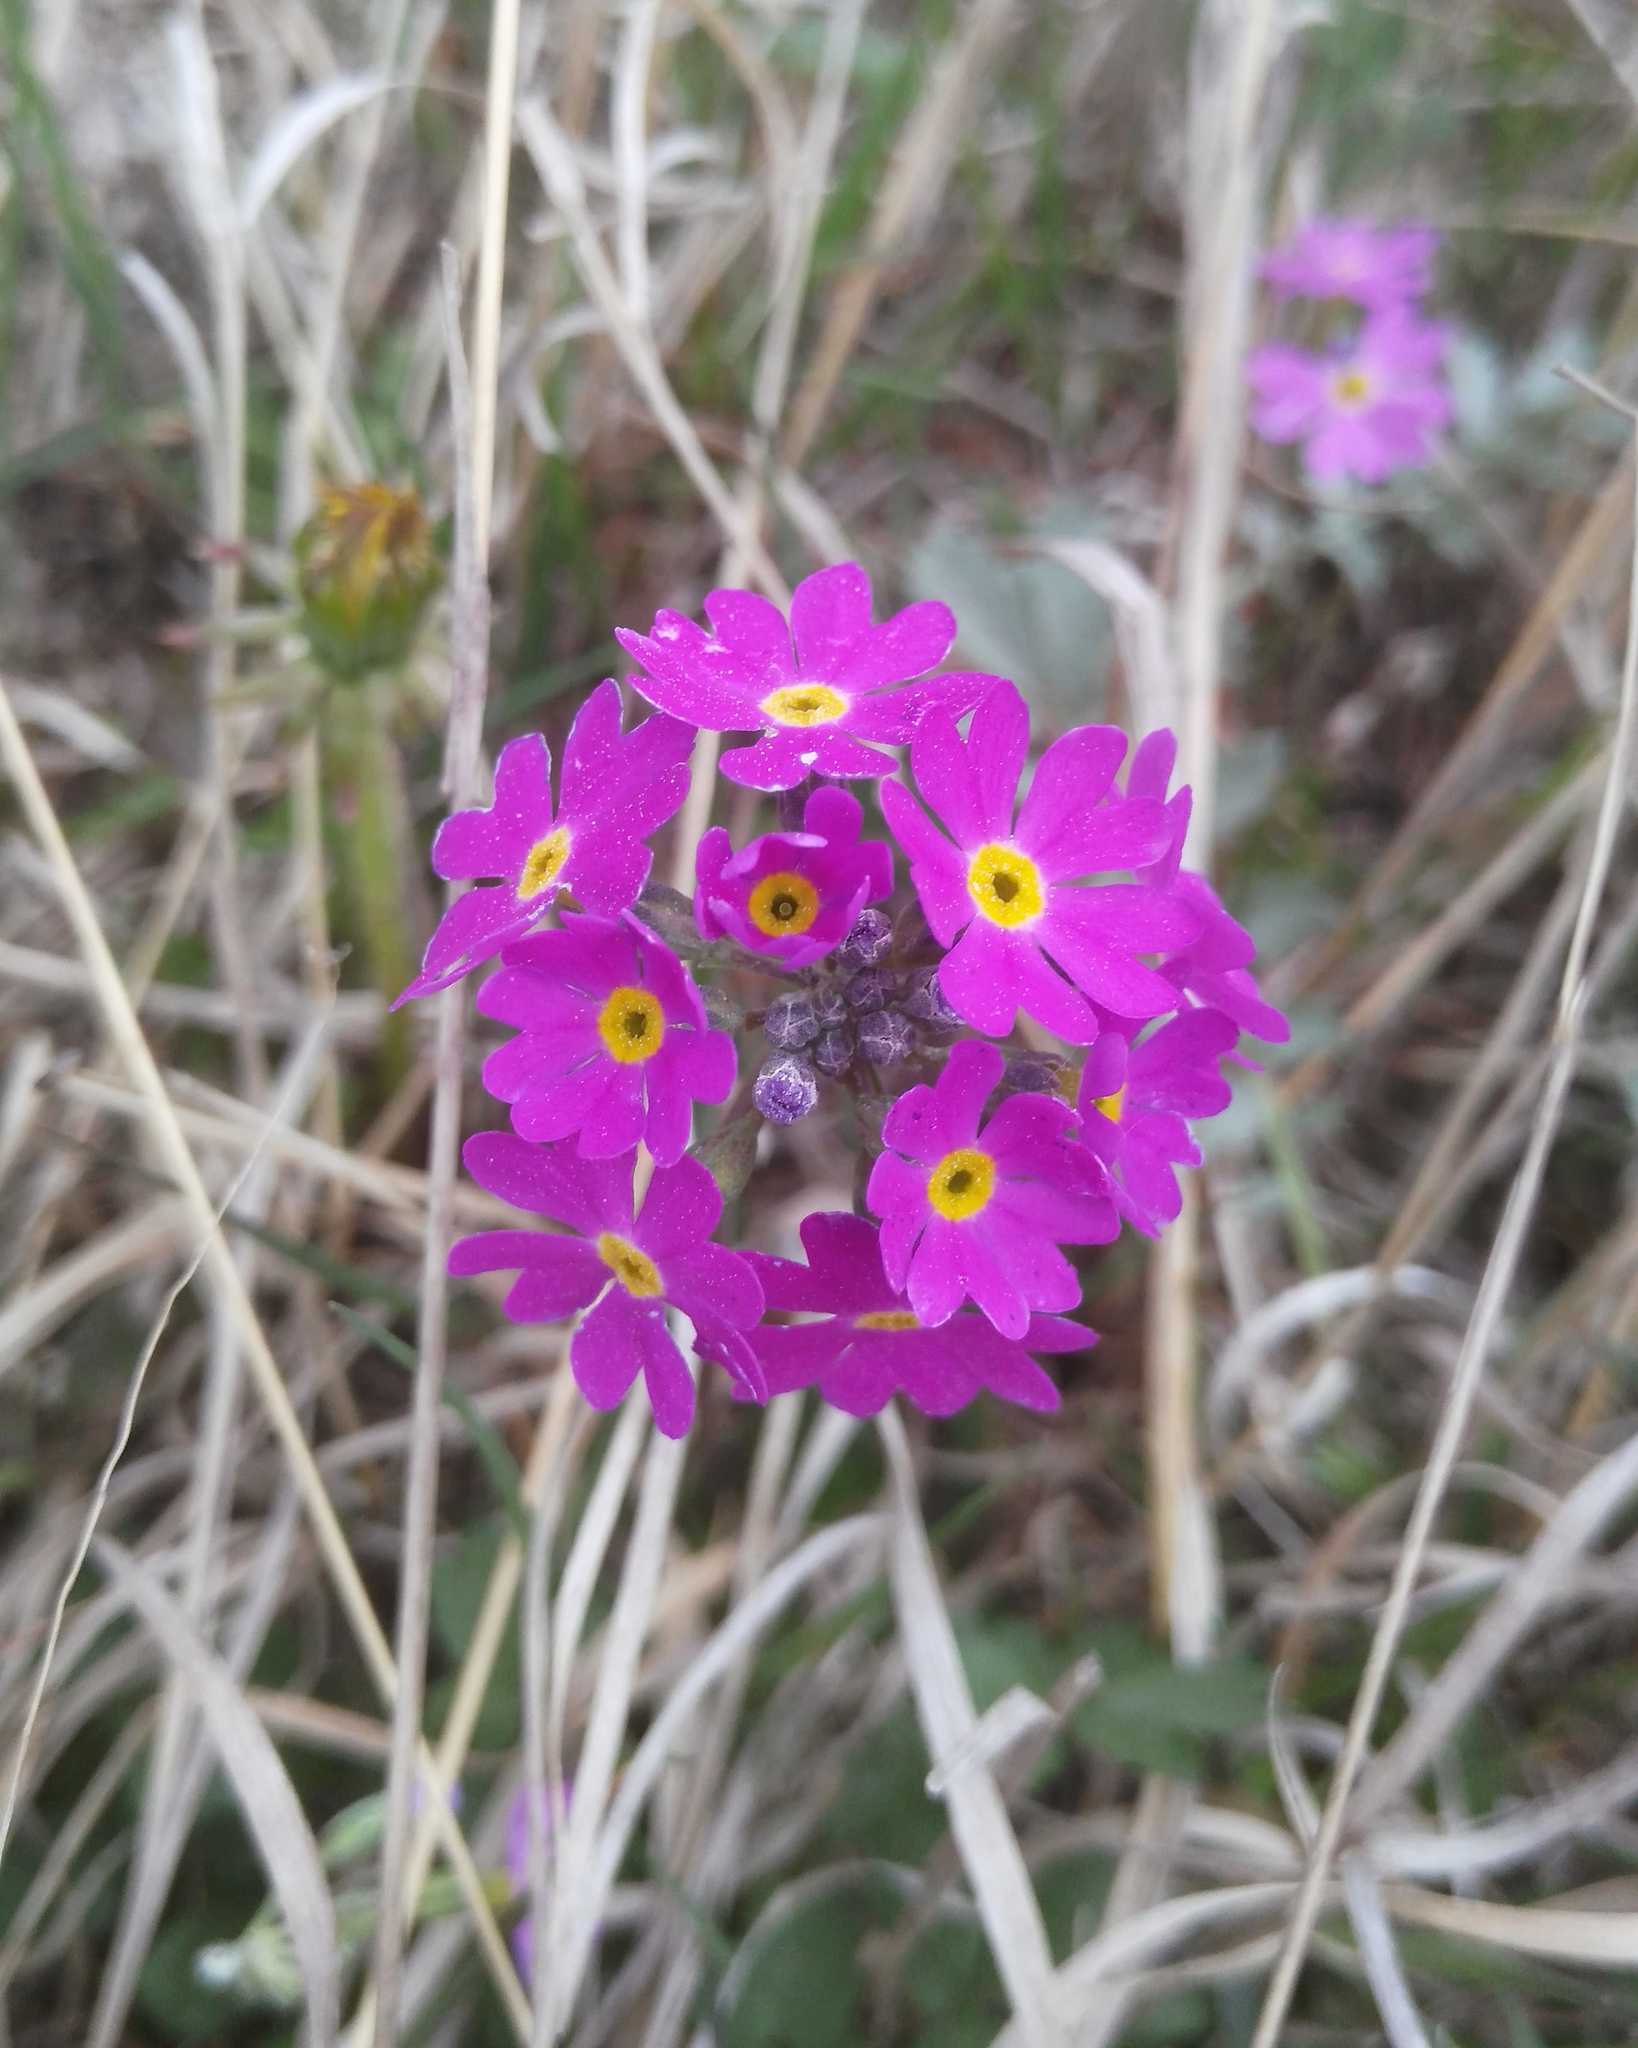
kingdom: Plantae
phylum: Tracheophyta
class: Magnoliopsida
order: Ericales
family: Primulaceae
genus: Primula
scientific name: Primula farinosa
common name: Bird's-eye primrose
